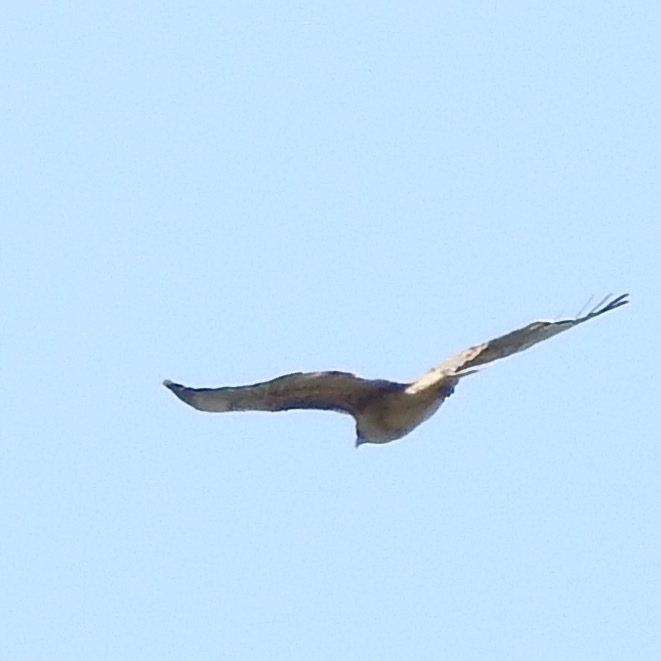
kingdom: Animalia
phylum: Chordata
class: Aves
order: Accipitriformes
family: Accipitridae
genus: Buteo
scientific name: Buteo jamaicensis
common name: Red-tailed hawk
